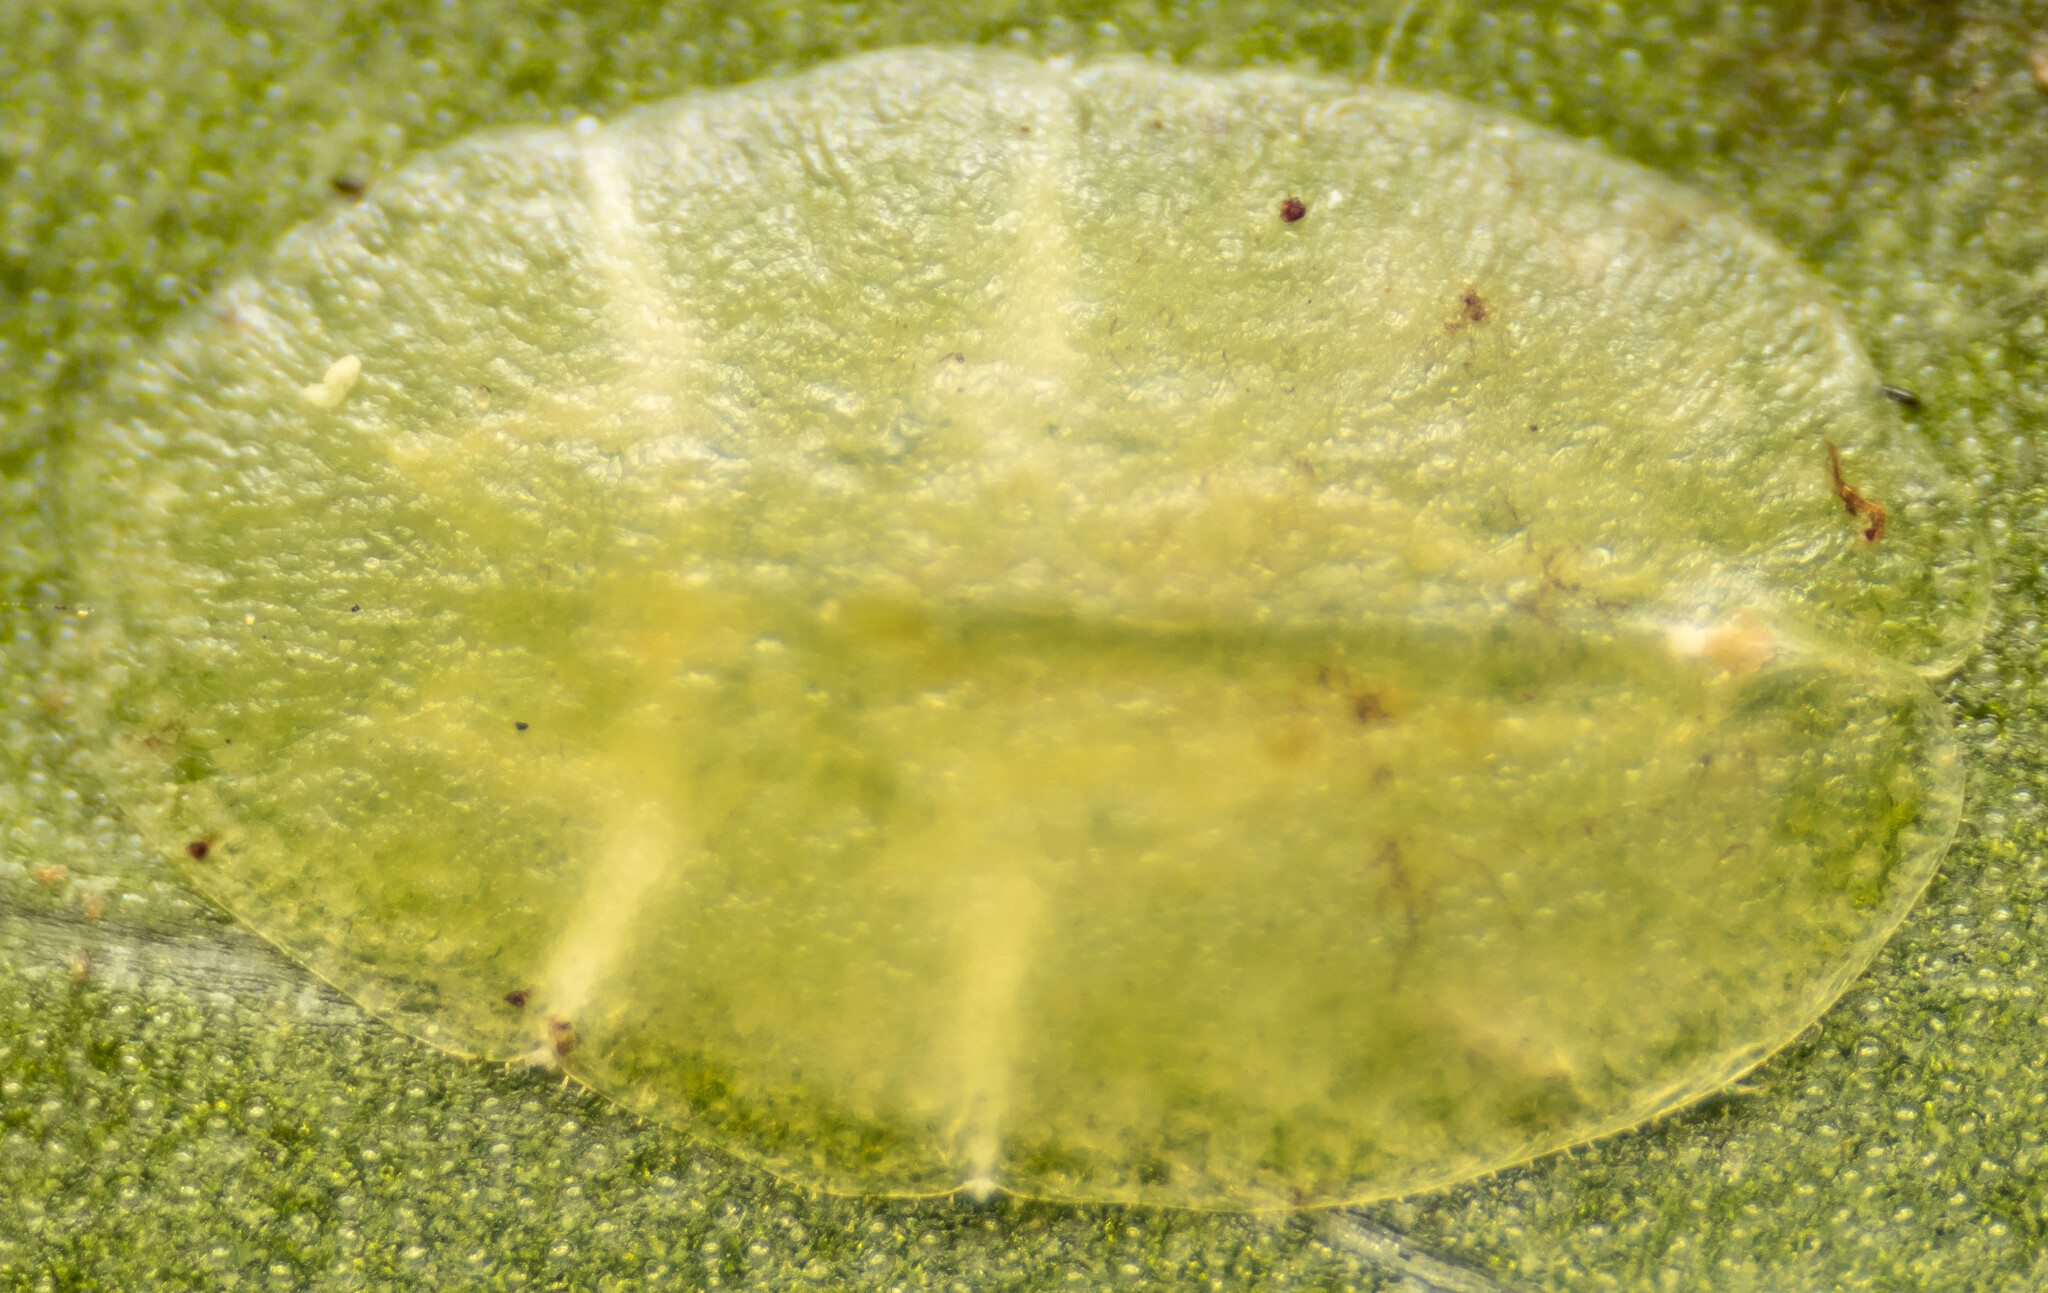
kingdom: Animalia
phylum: Arthropoda
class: Insecta
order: Hemiptera
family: Coccidae
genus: Lichtensia
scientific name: Lichtensia viburni
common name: Viburnum cushion scale
